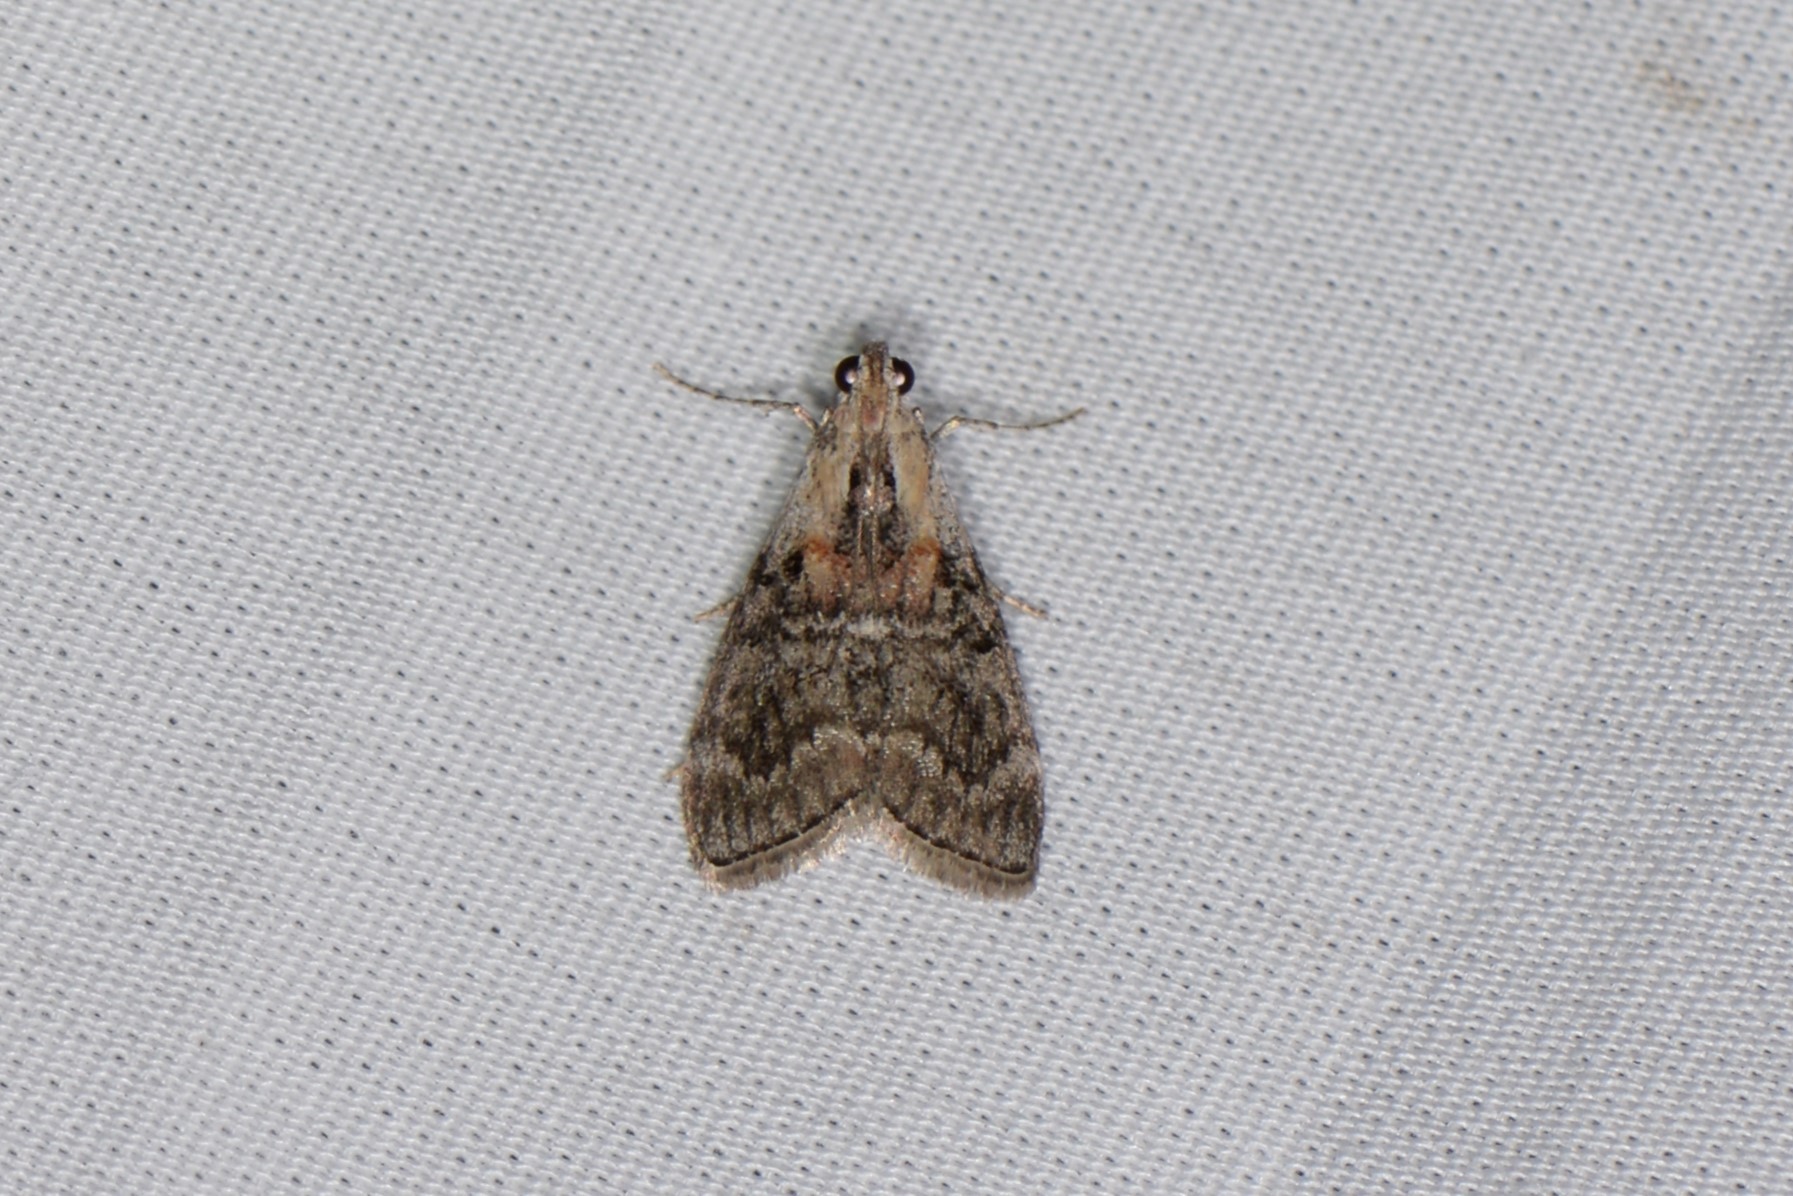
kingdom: Animalia
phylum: Arthropoda
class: Insecta
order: Lepidoptera
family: Pyralidae
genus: Pococera
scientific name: Pococera expandens
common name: Striped oak webworm moth
